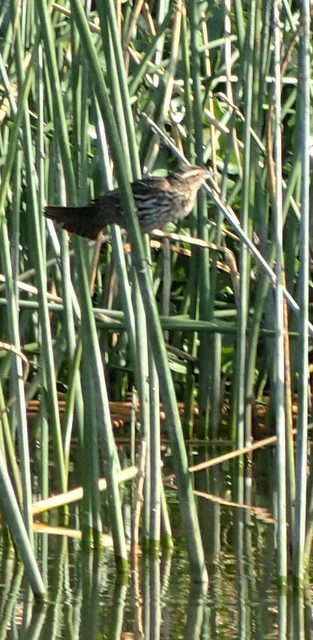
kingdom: Animalia
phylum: Chordata
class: Aves
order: Passeriformes
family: Icteridae
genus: Agelaius
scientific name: Agelaius phoeniceus
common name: Red-winged blackbird
